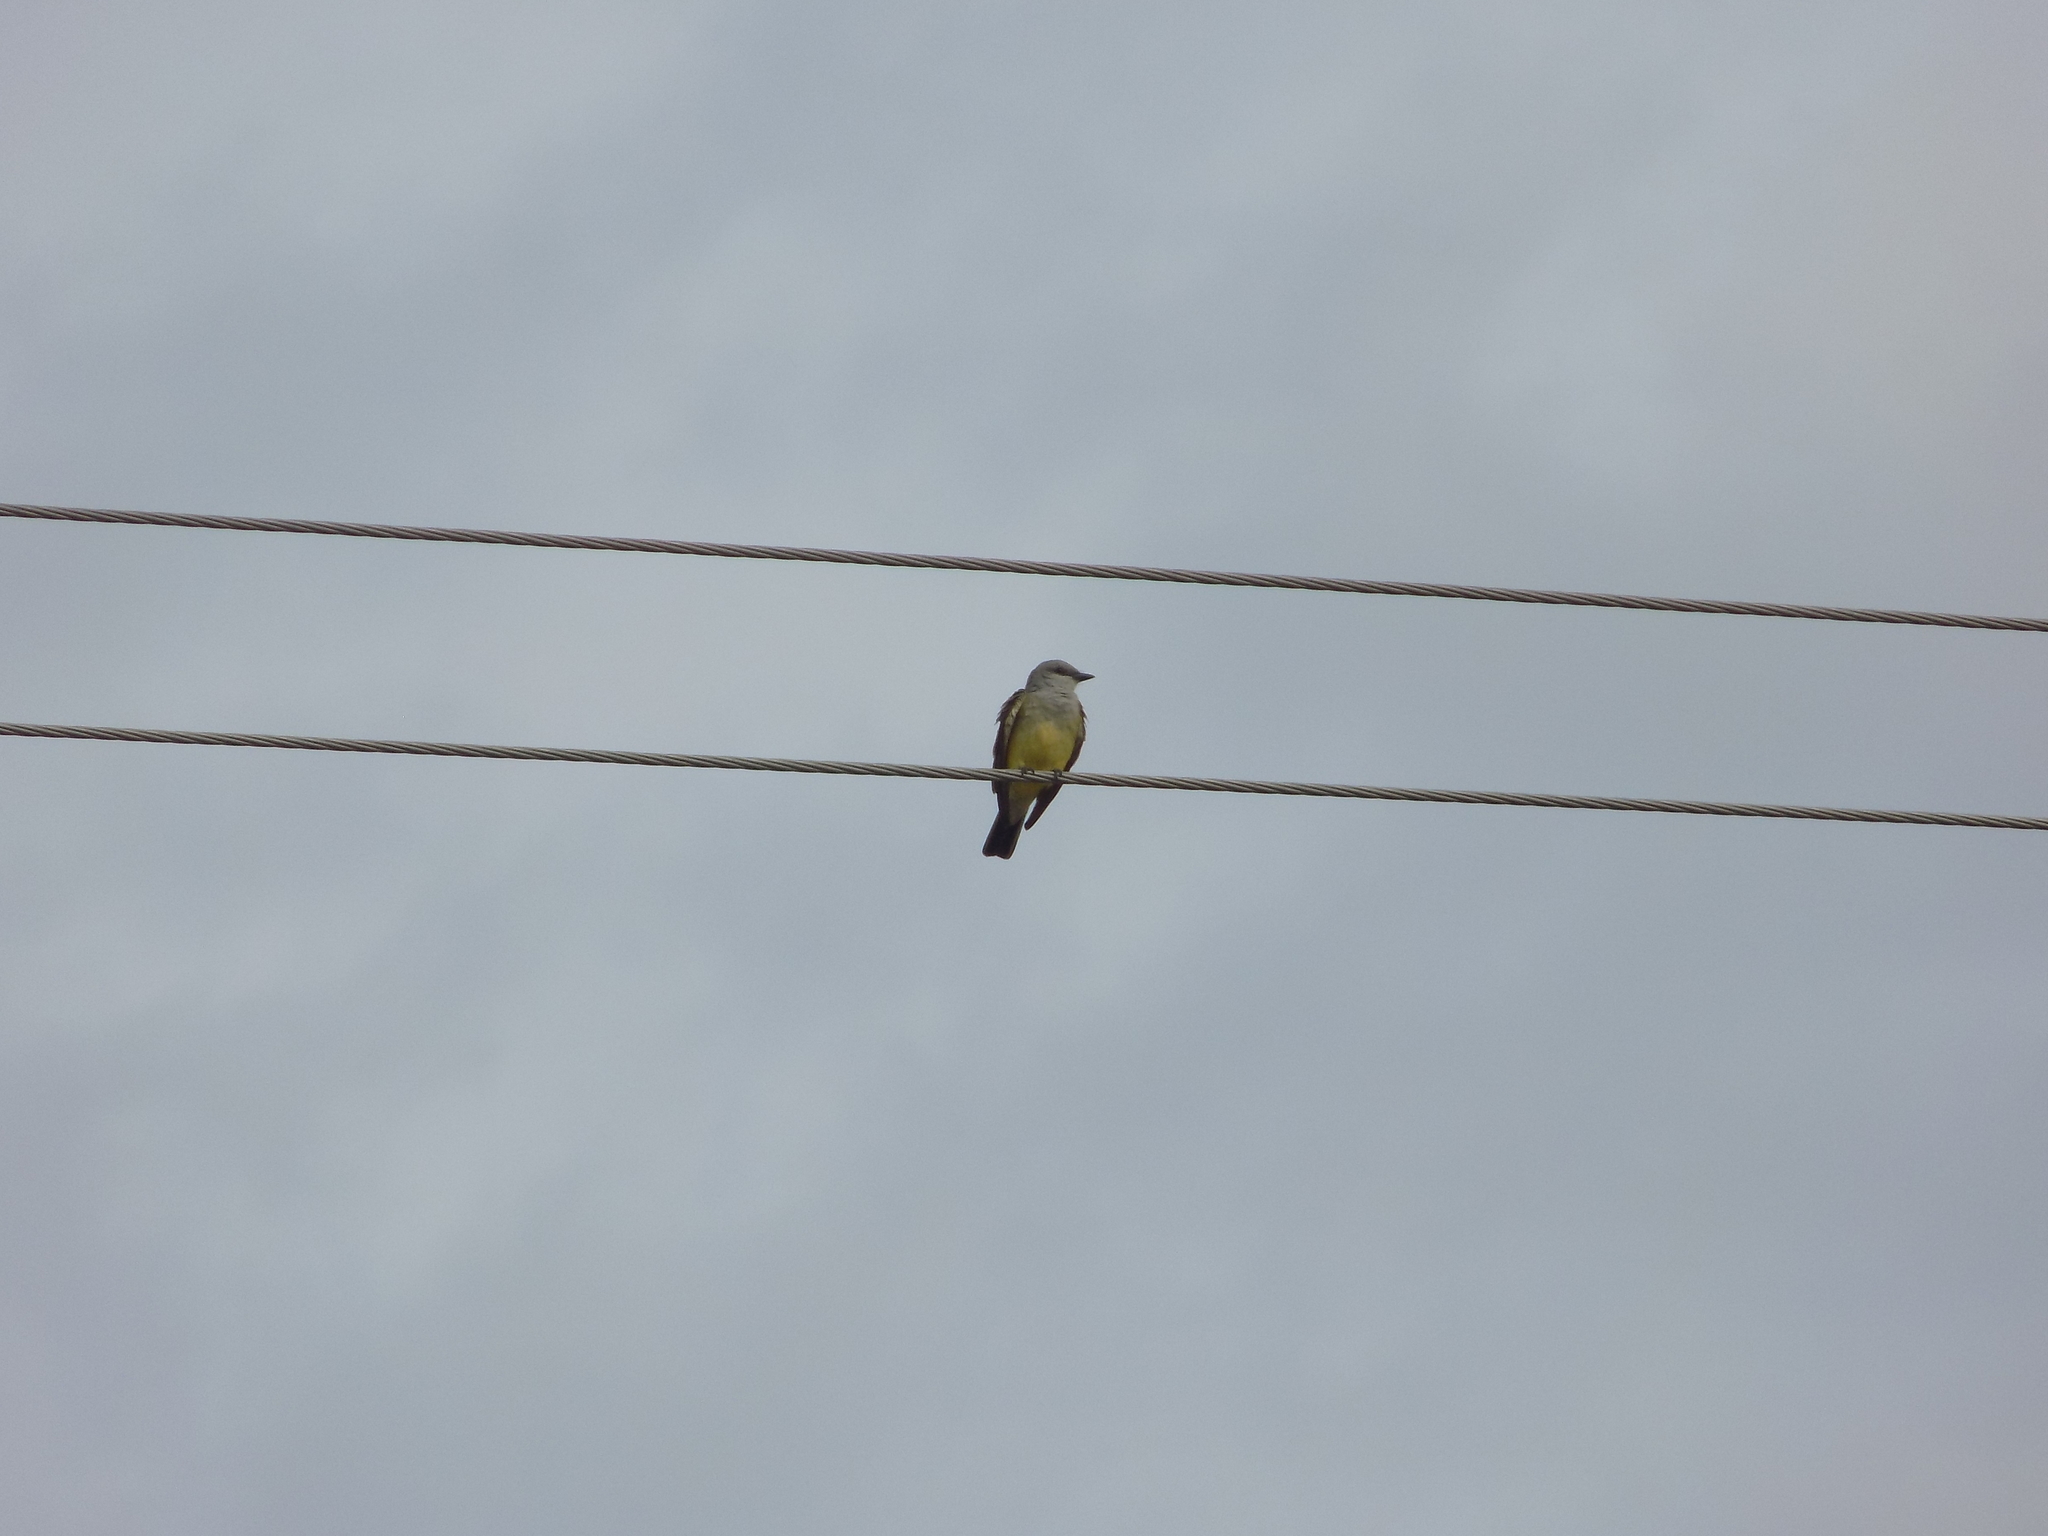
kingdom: Animalia
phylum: Chordata
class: Aves
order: Passeriformes
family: Tyrannidae
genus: Tyrannus
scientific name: Tyrannus verticalis
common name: Western kingbird
